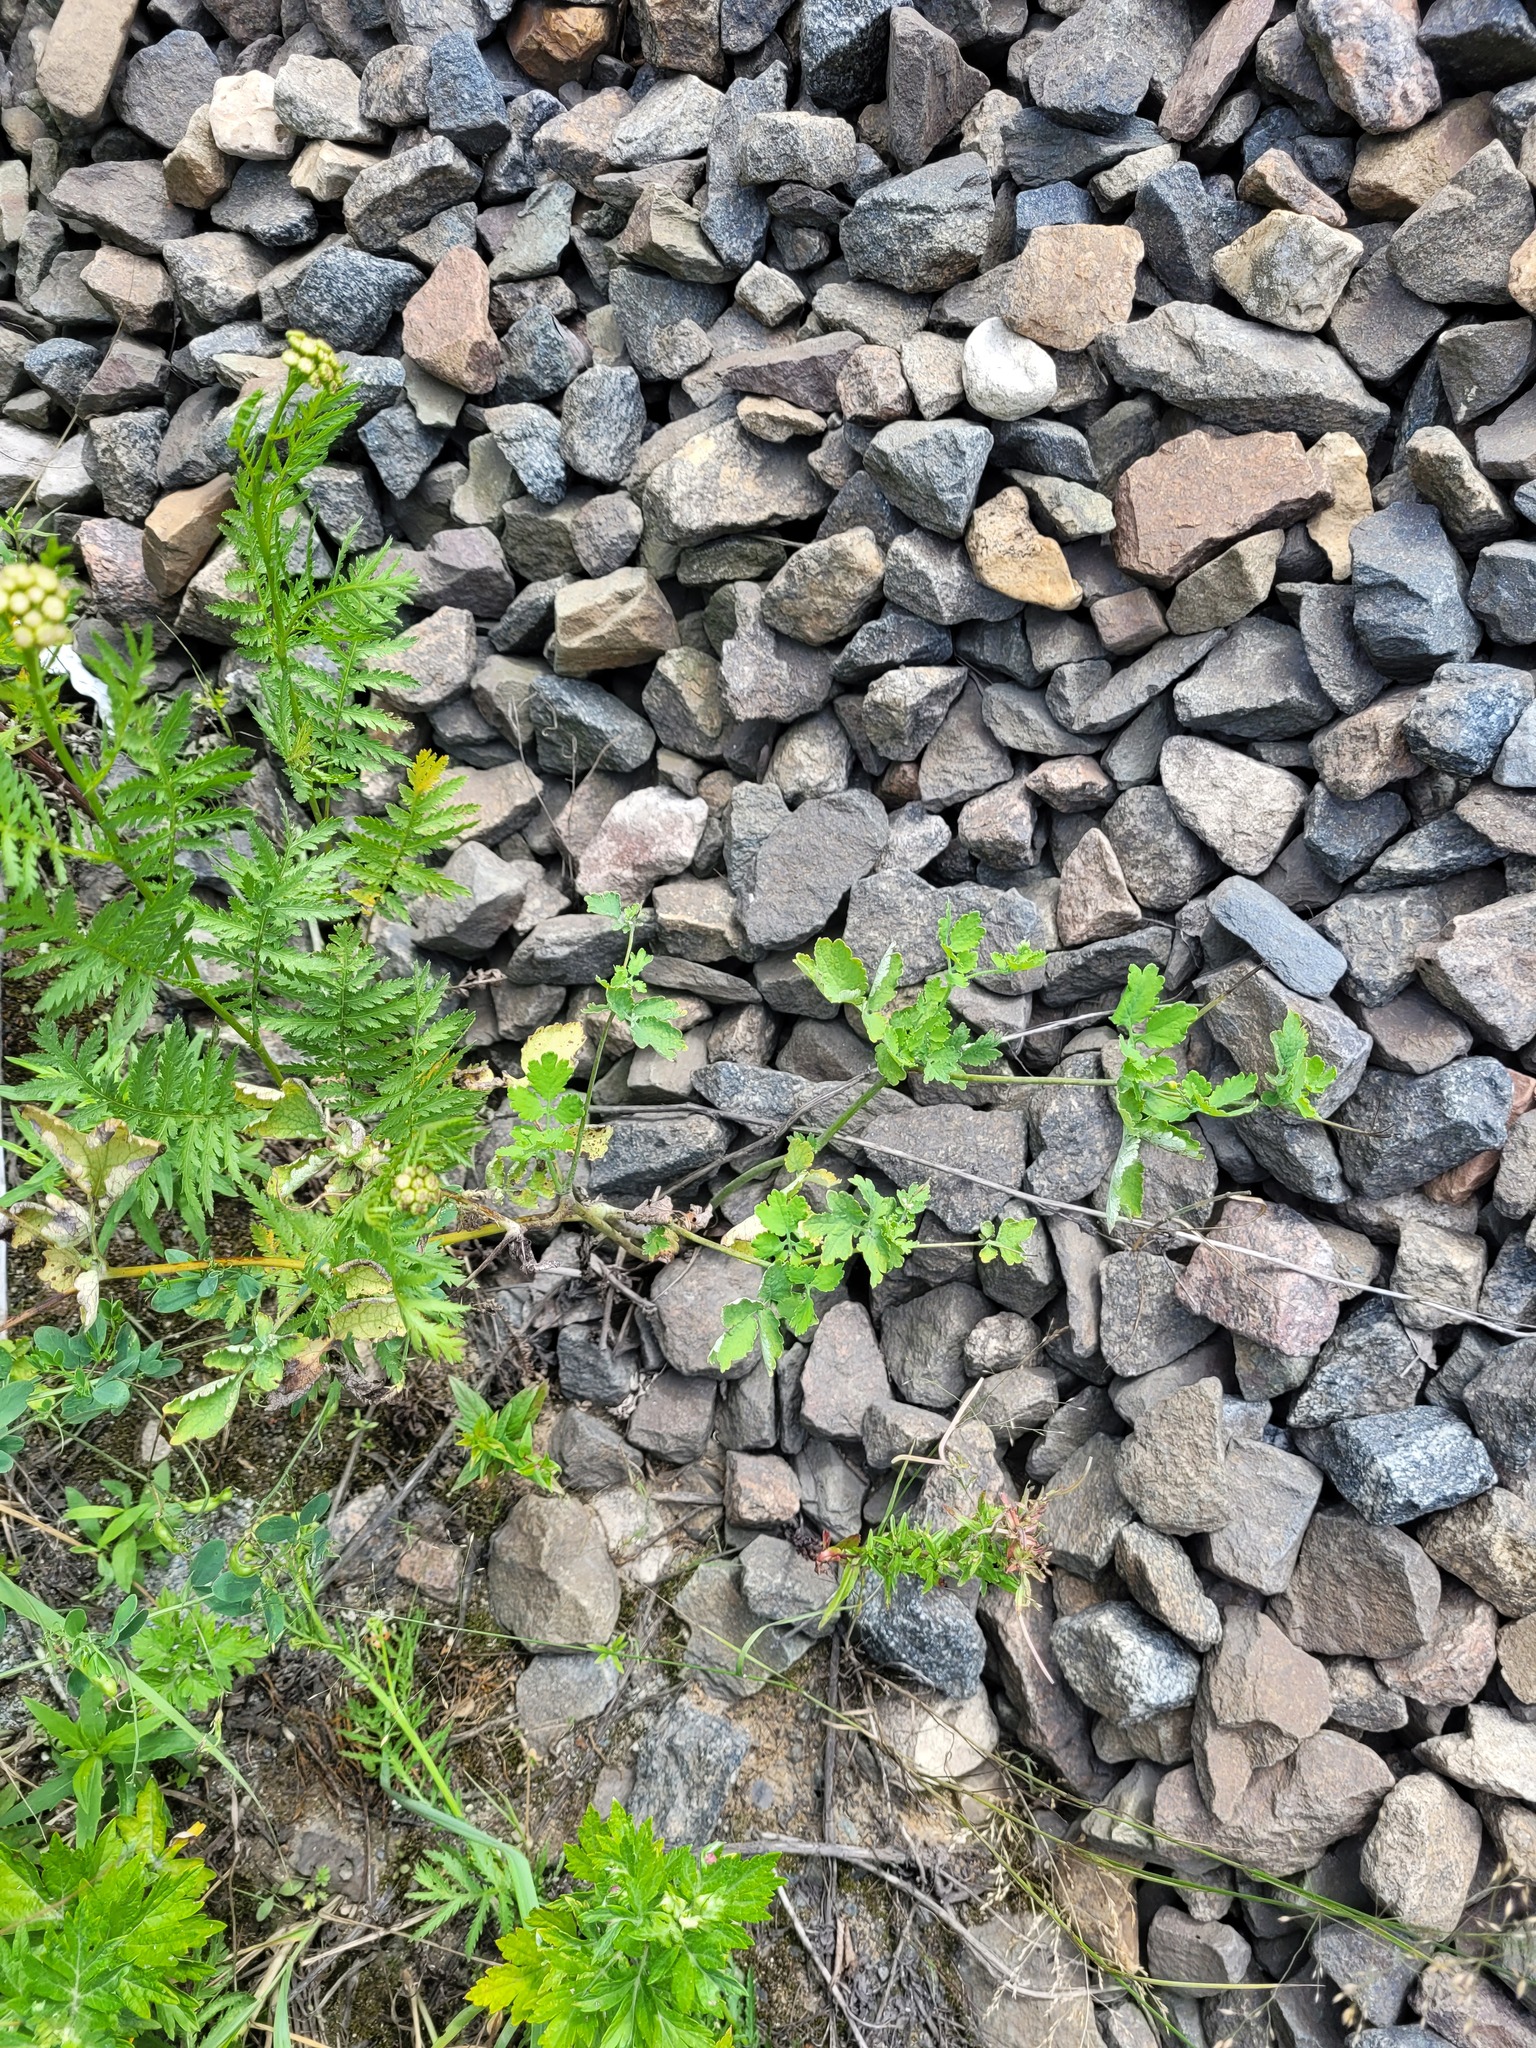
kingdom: Plantae
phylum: Tracheophyta
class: Magnoliopsida
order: Ranunculales
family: Papaveraceae
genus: Chelidonium
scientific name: Chelidonium majus
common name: Greater celandine
